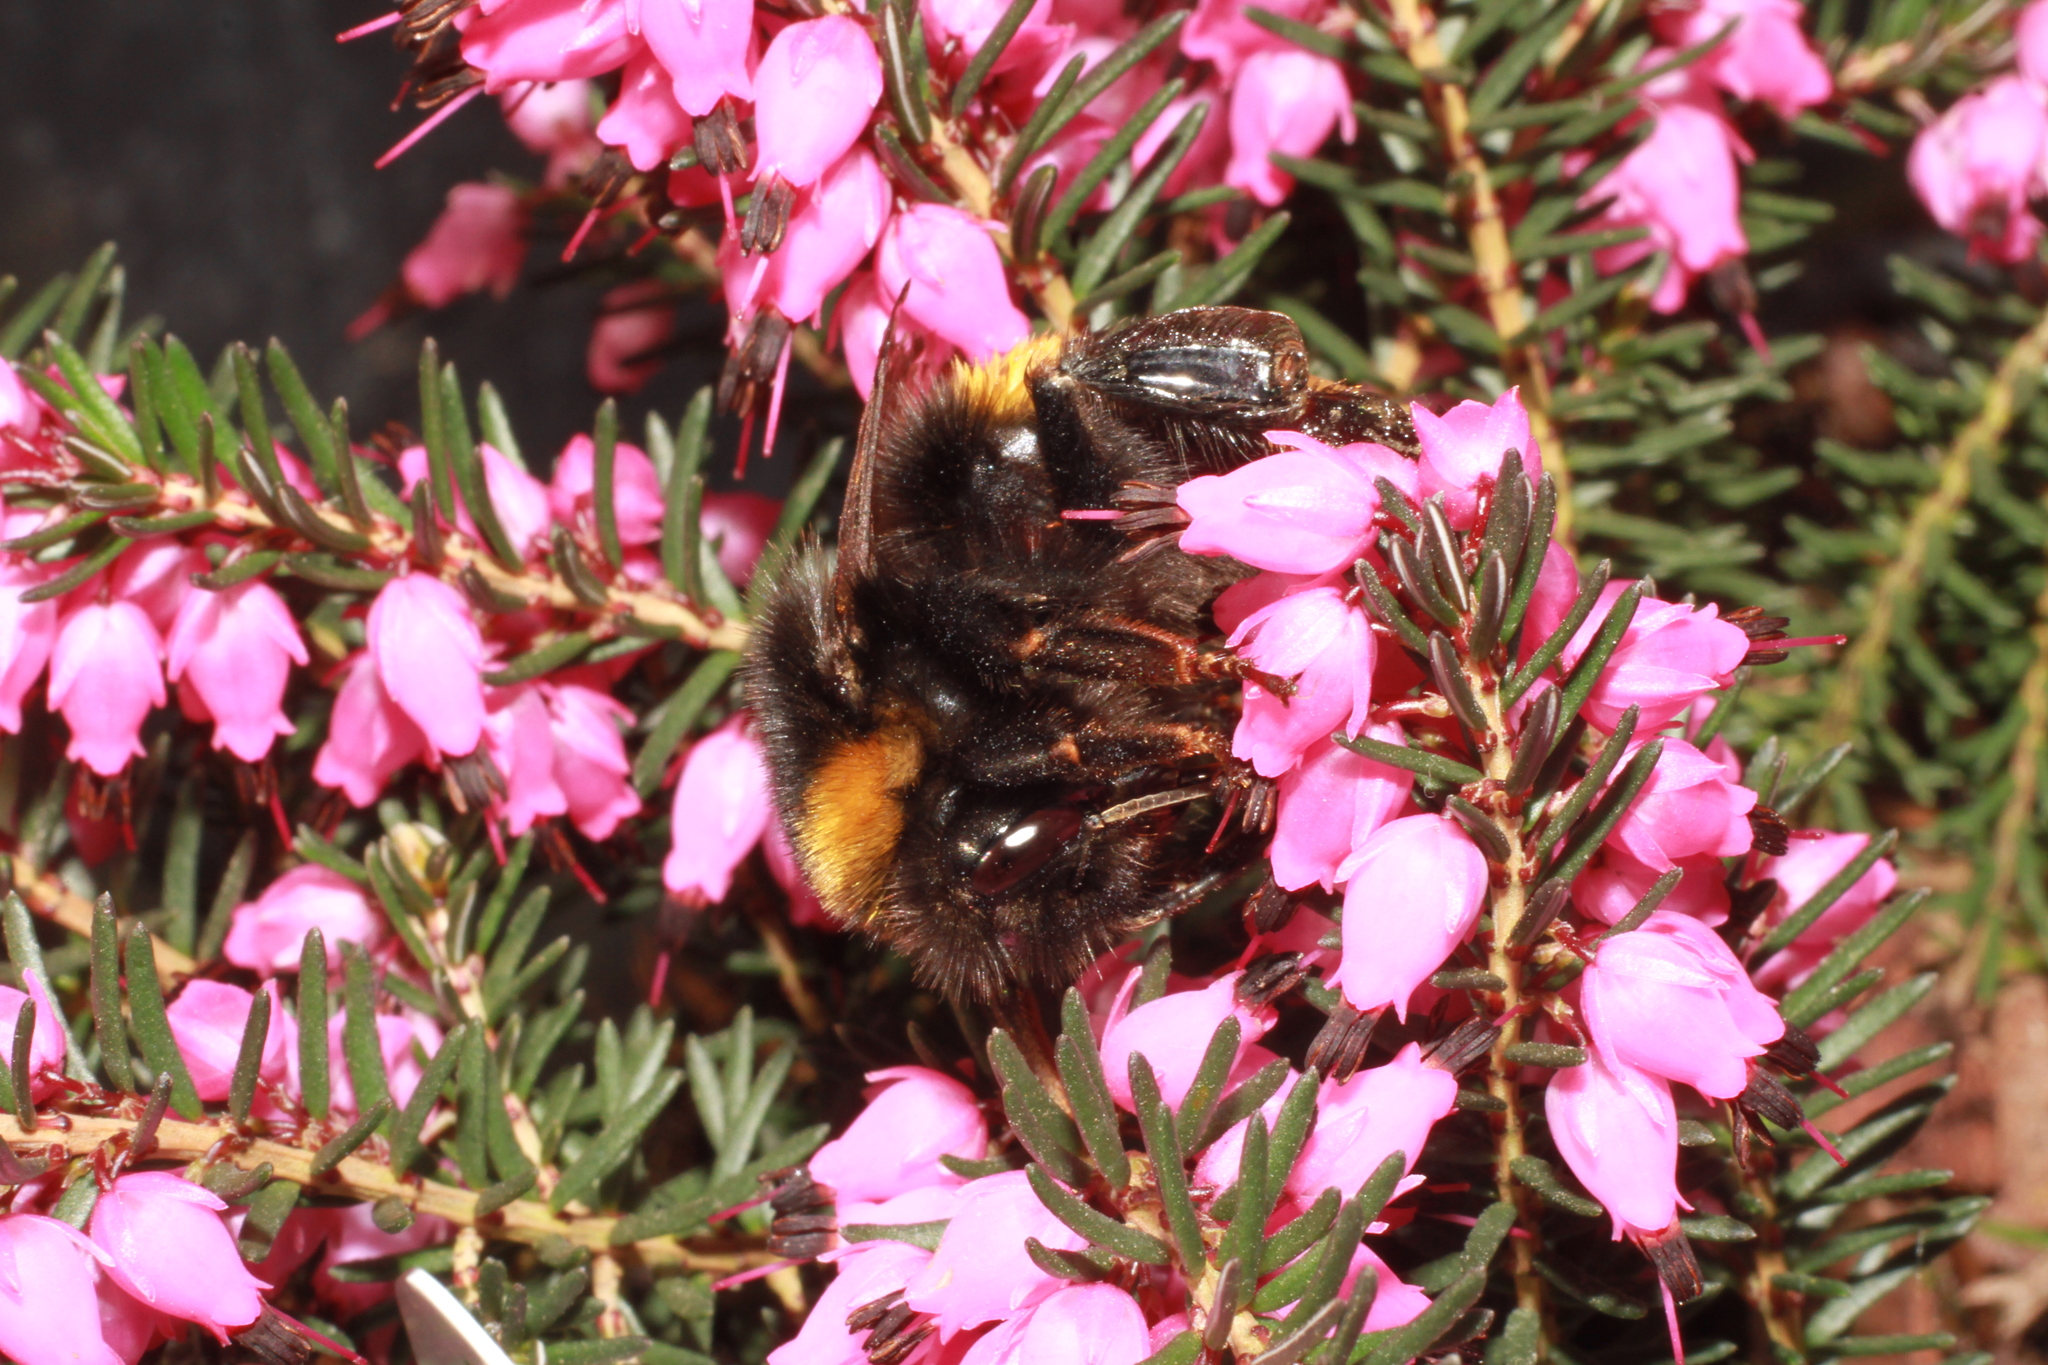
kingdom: Animalia
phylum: Arthropoda
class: Insecta
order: Hymenoptera
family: Apidae
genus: Bombus
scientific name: Bombus terrestris
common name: Buff-tailed bumblebee
